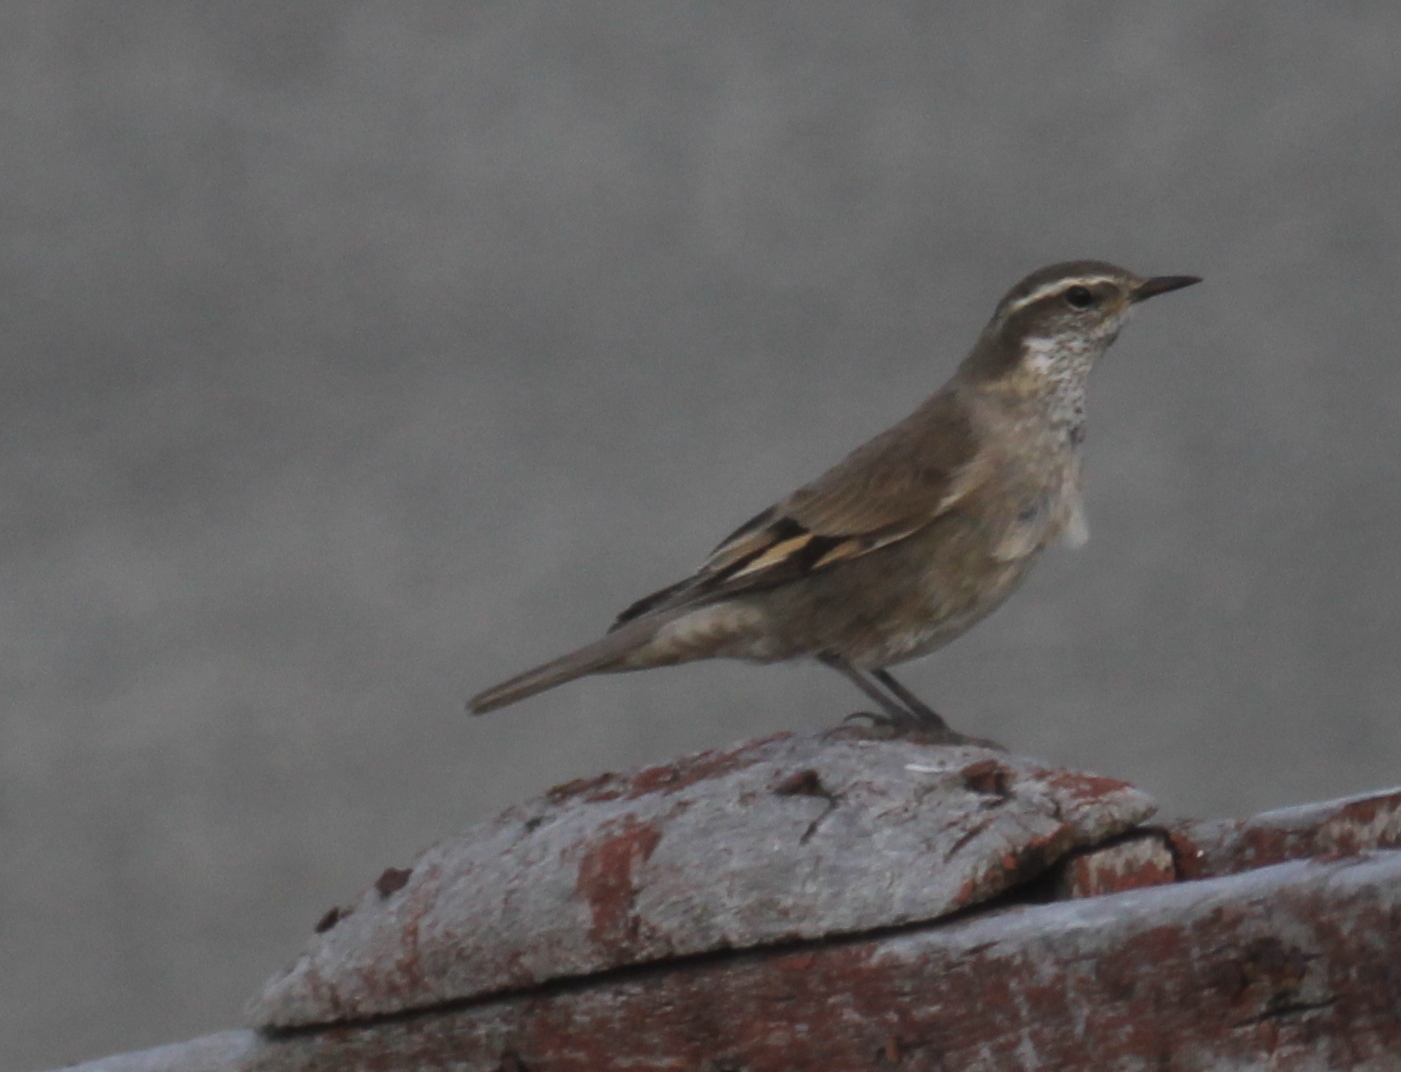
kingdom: Animalia
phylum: Chordata
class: Aves
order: Passeriformes
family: Furnariidae
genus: Cinclodes
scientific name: Cinclodes fuscus
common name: Buff-winged cinclodes
